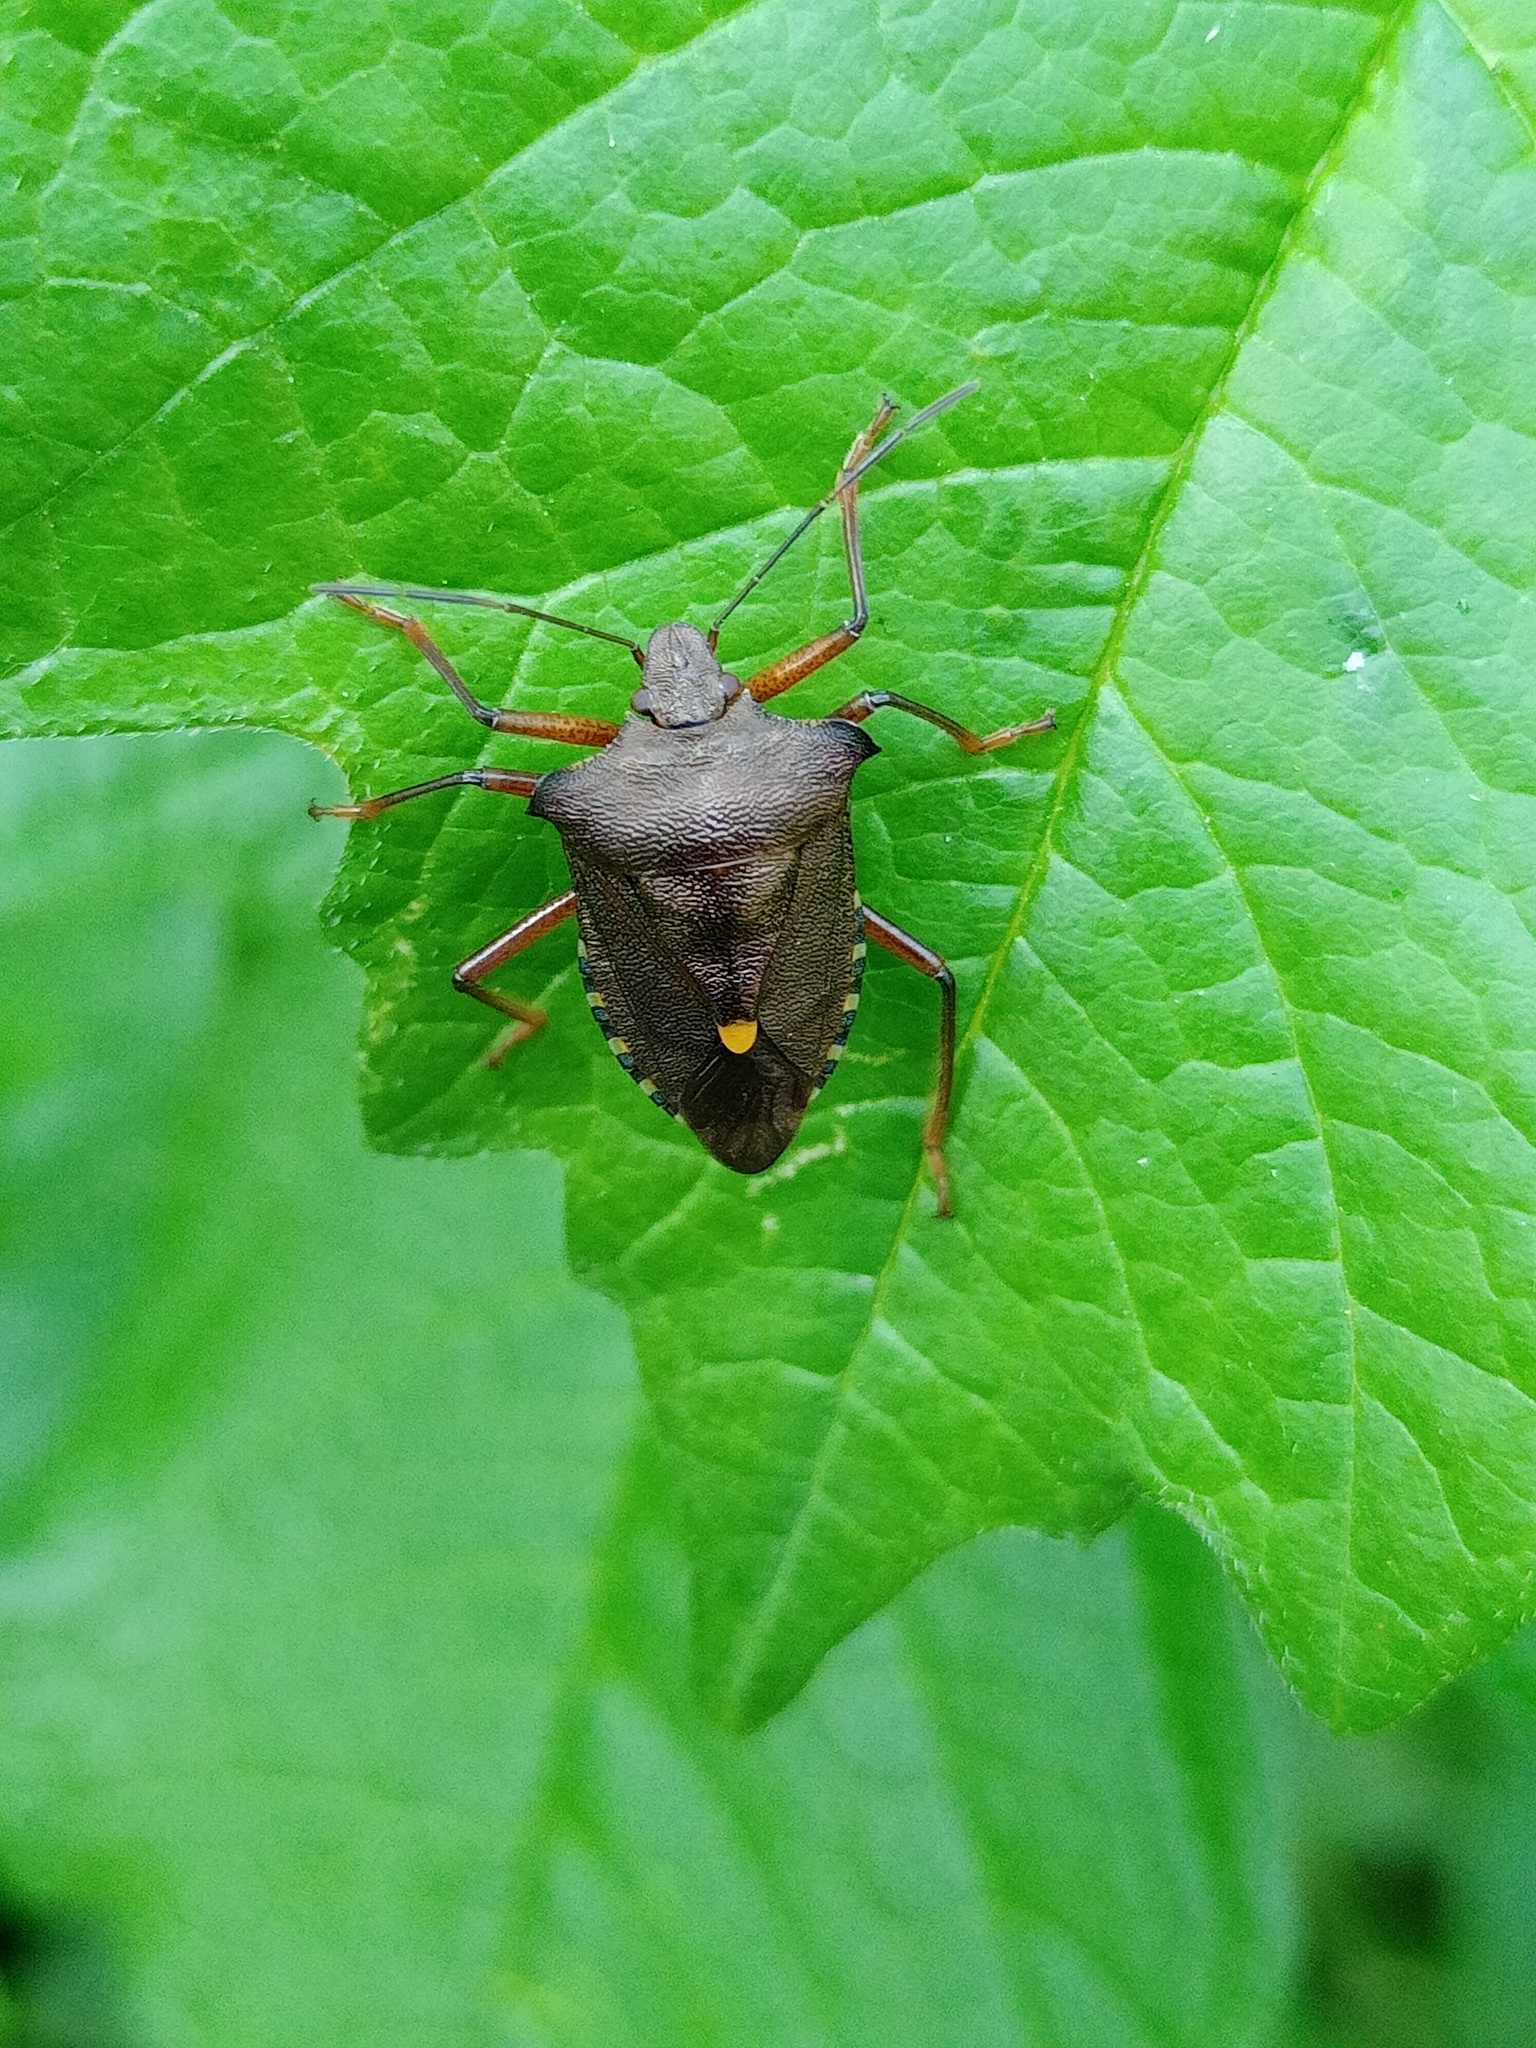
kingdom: Animalia
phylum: Arthropoda
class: Insecta
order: Hemiptera
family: Pentatomidae
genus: Pentatoma
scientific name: Pentatoma rufipes
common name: Forest bug
